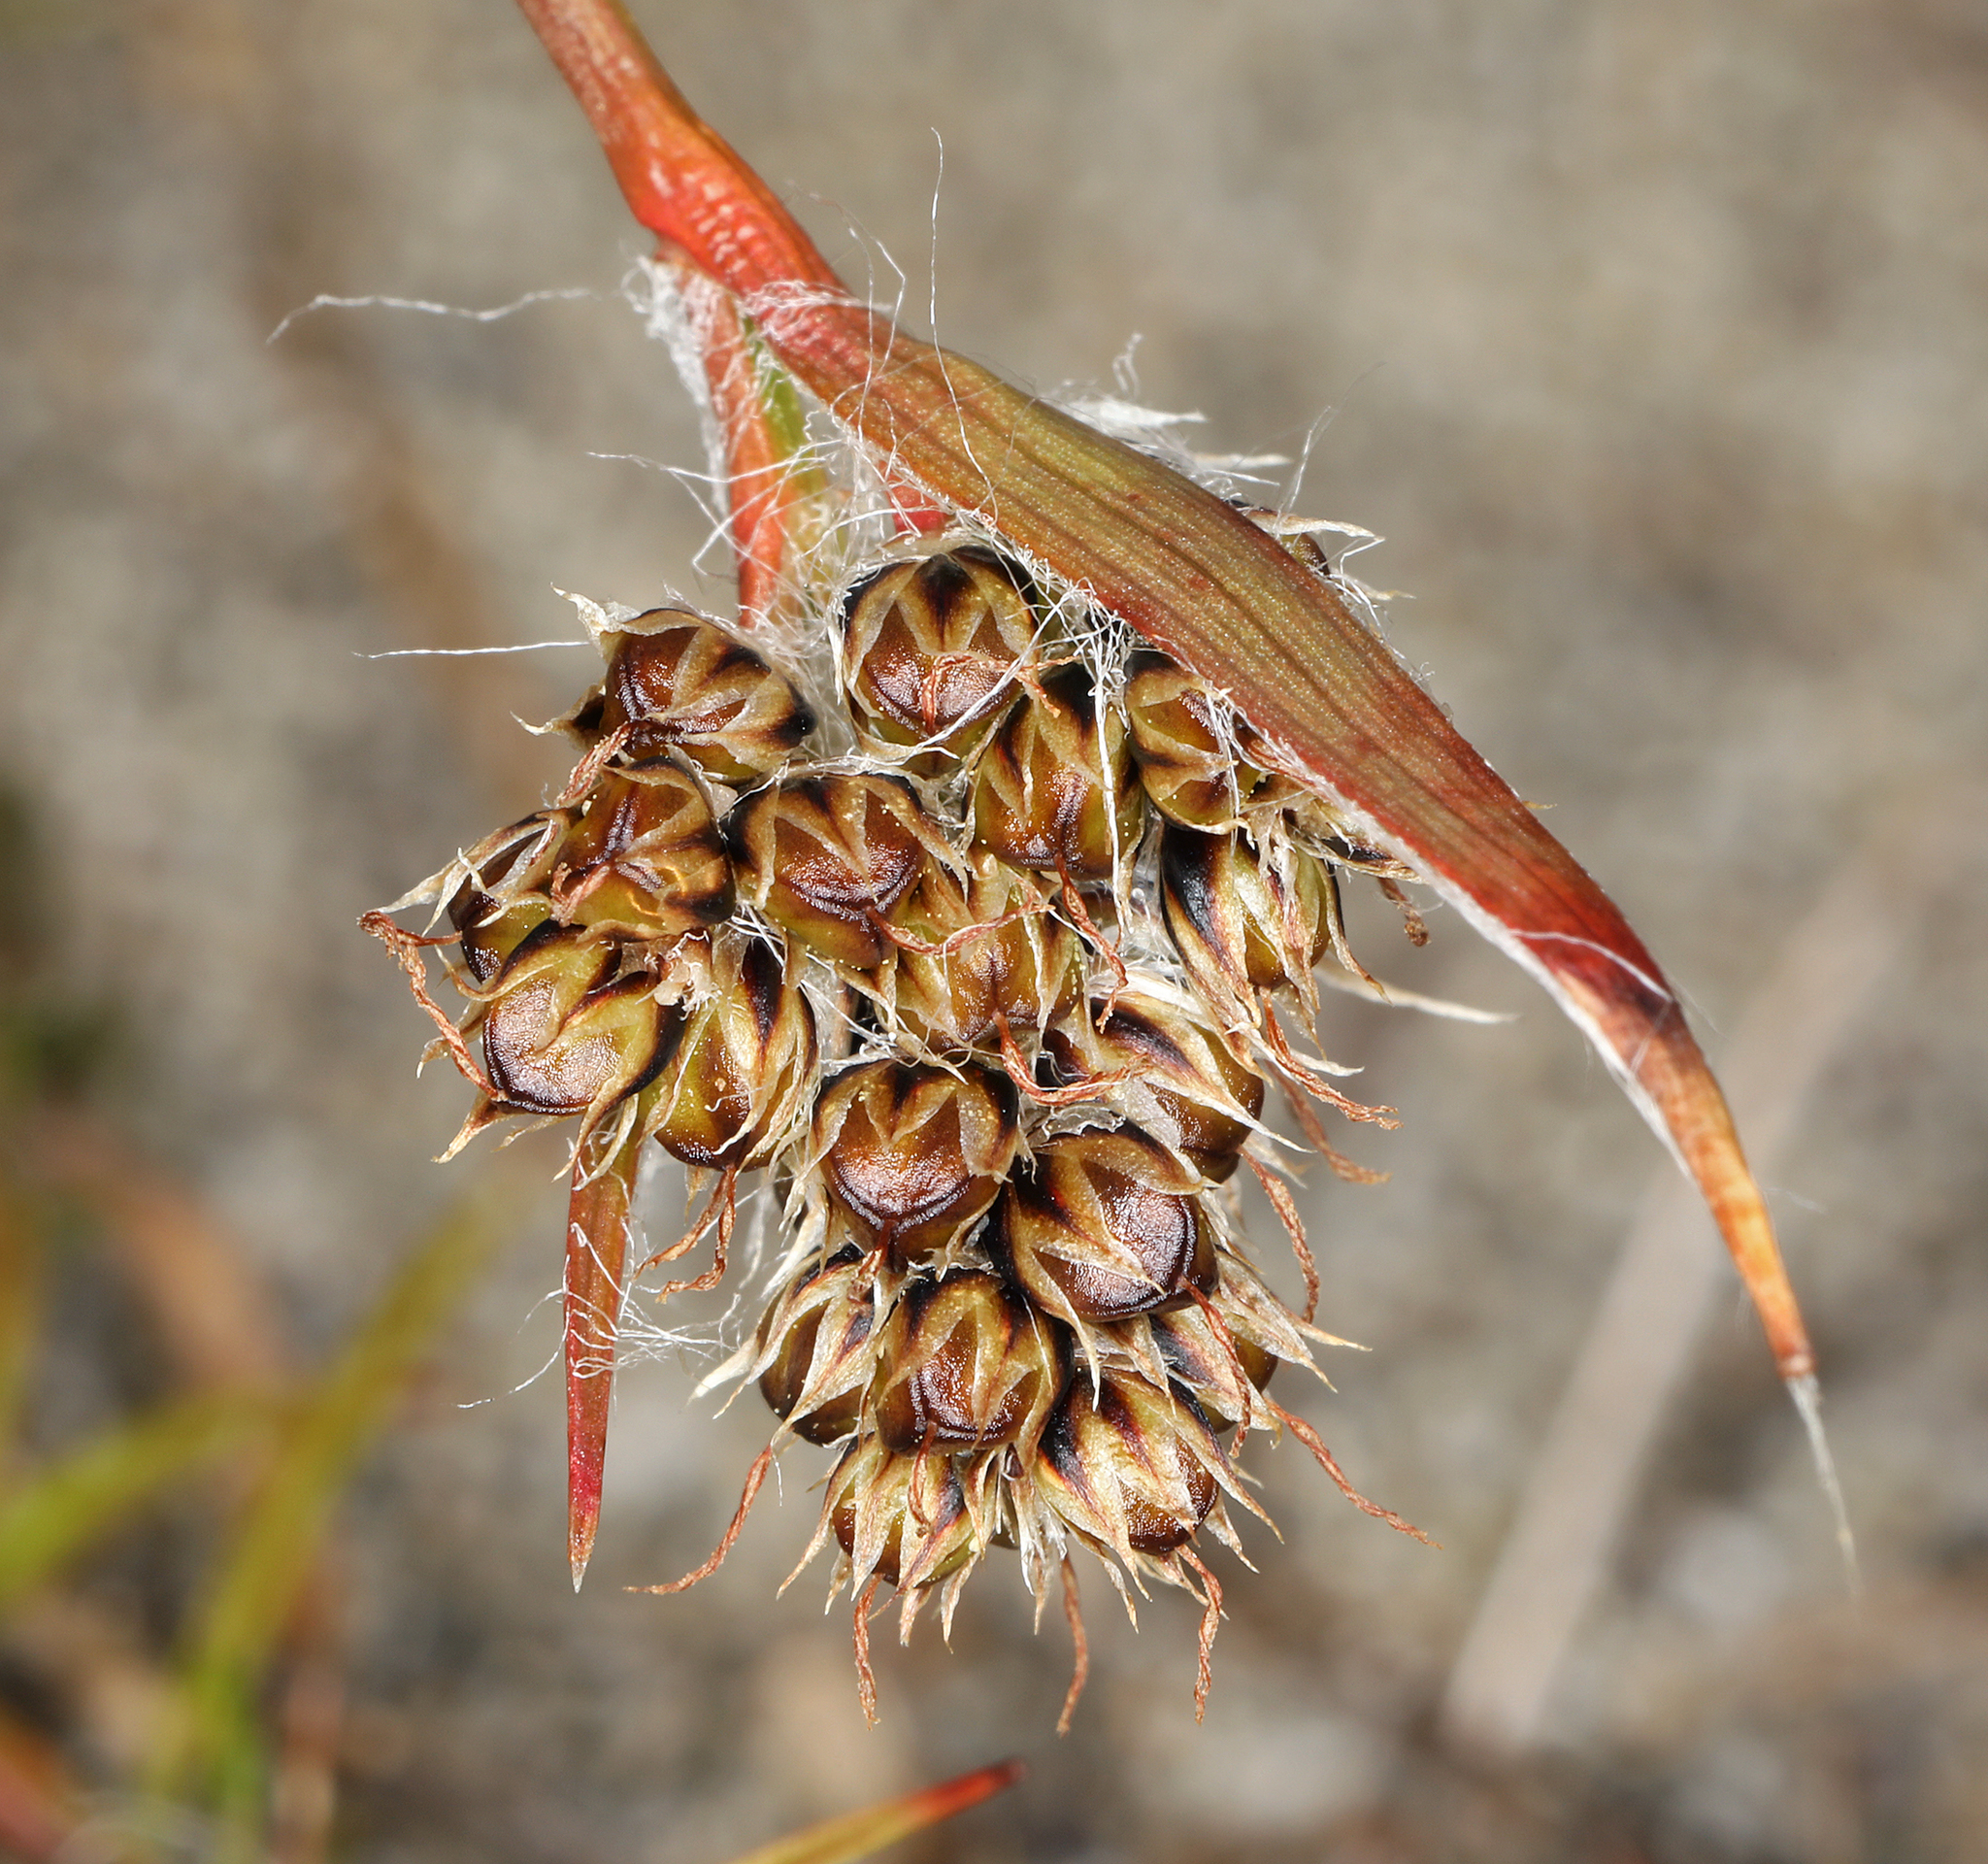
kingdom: Plantae
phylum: Tracheophyta
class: Liliopsida
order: Poales
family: Juncaceae
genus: Luzula
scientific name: Luzula macrantha
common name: Large-anthered woodrush
